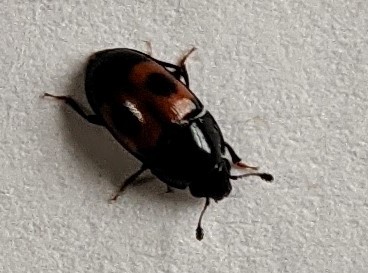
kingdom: Animalia
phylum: Arthropoda
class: Insecta
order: Coleoptera
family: Nitidulidae
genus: Glischrochilus
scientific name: Glischrochilus sanguinolentus
